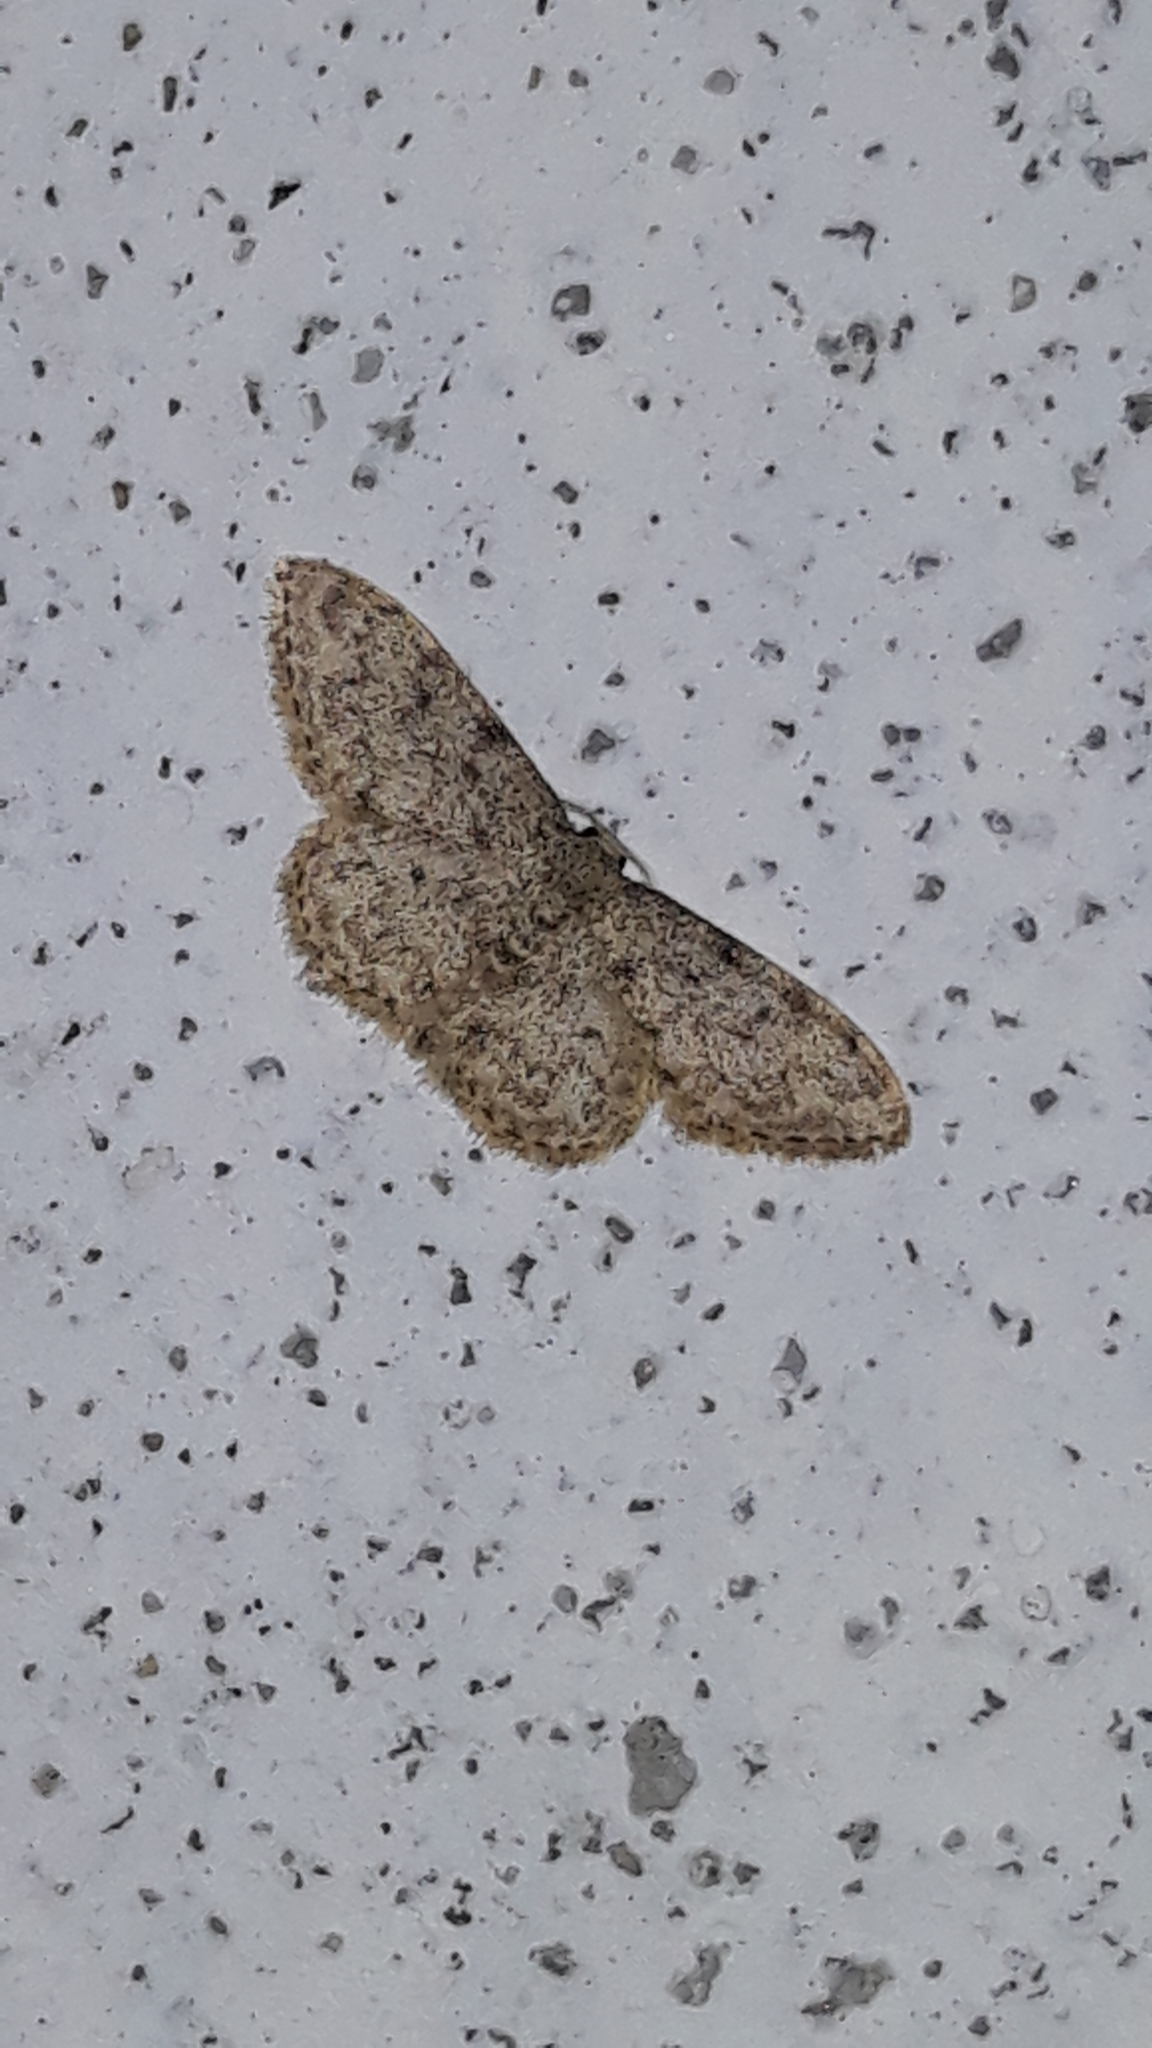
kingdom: Animalia
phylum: Arthropoda
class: Insecta
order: Lepidoptera
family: Geometridae
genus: Idaea
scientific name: Idaea cervantaria
